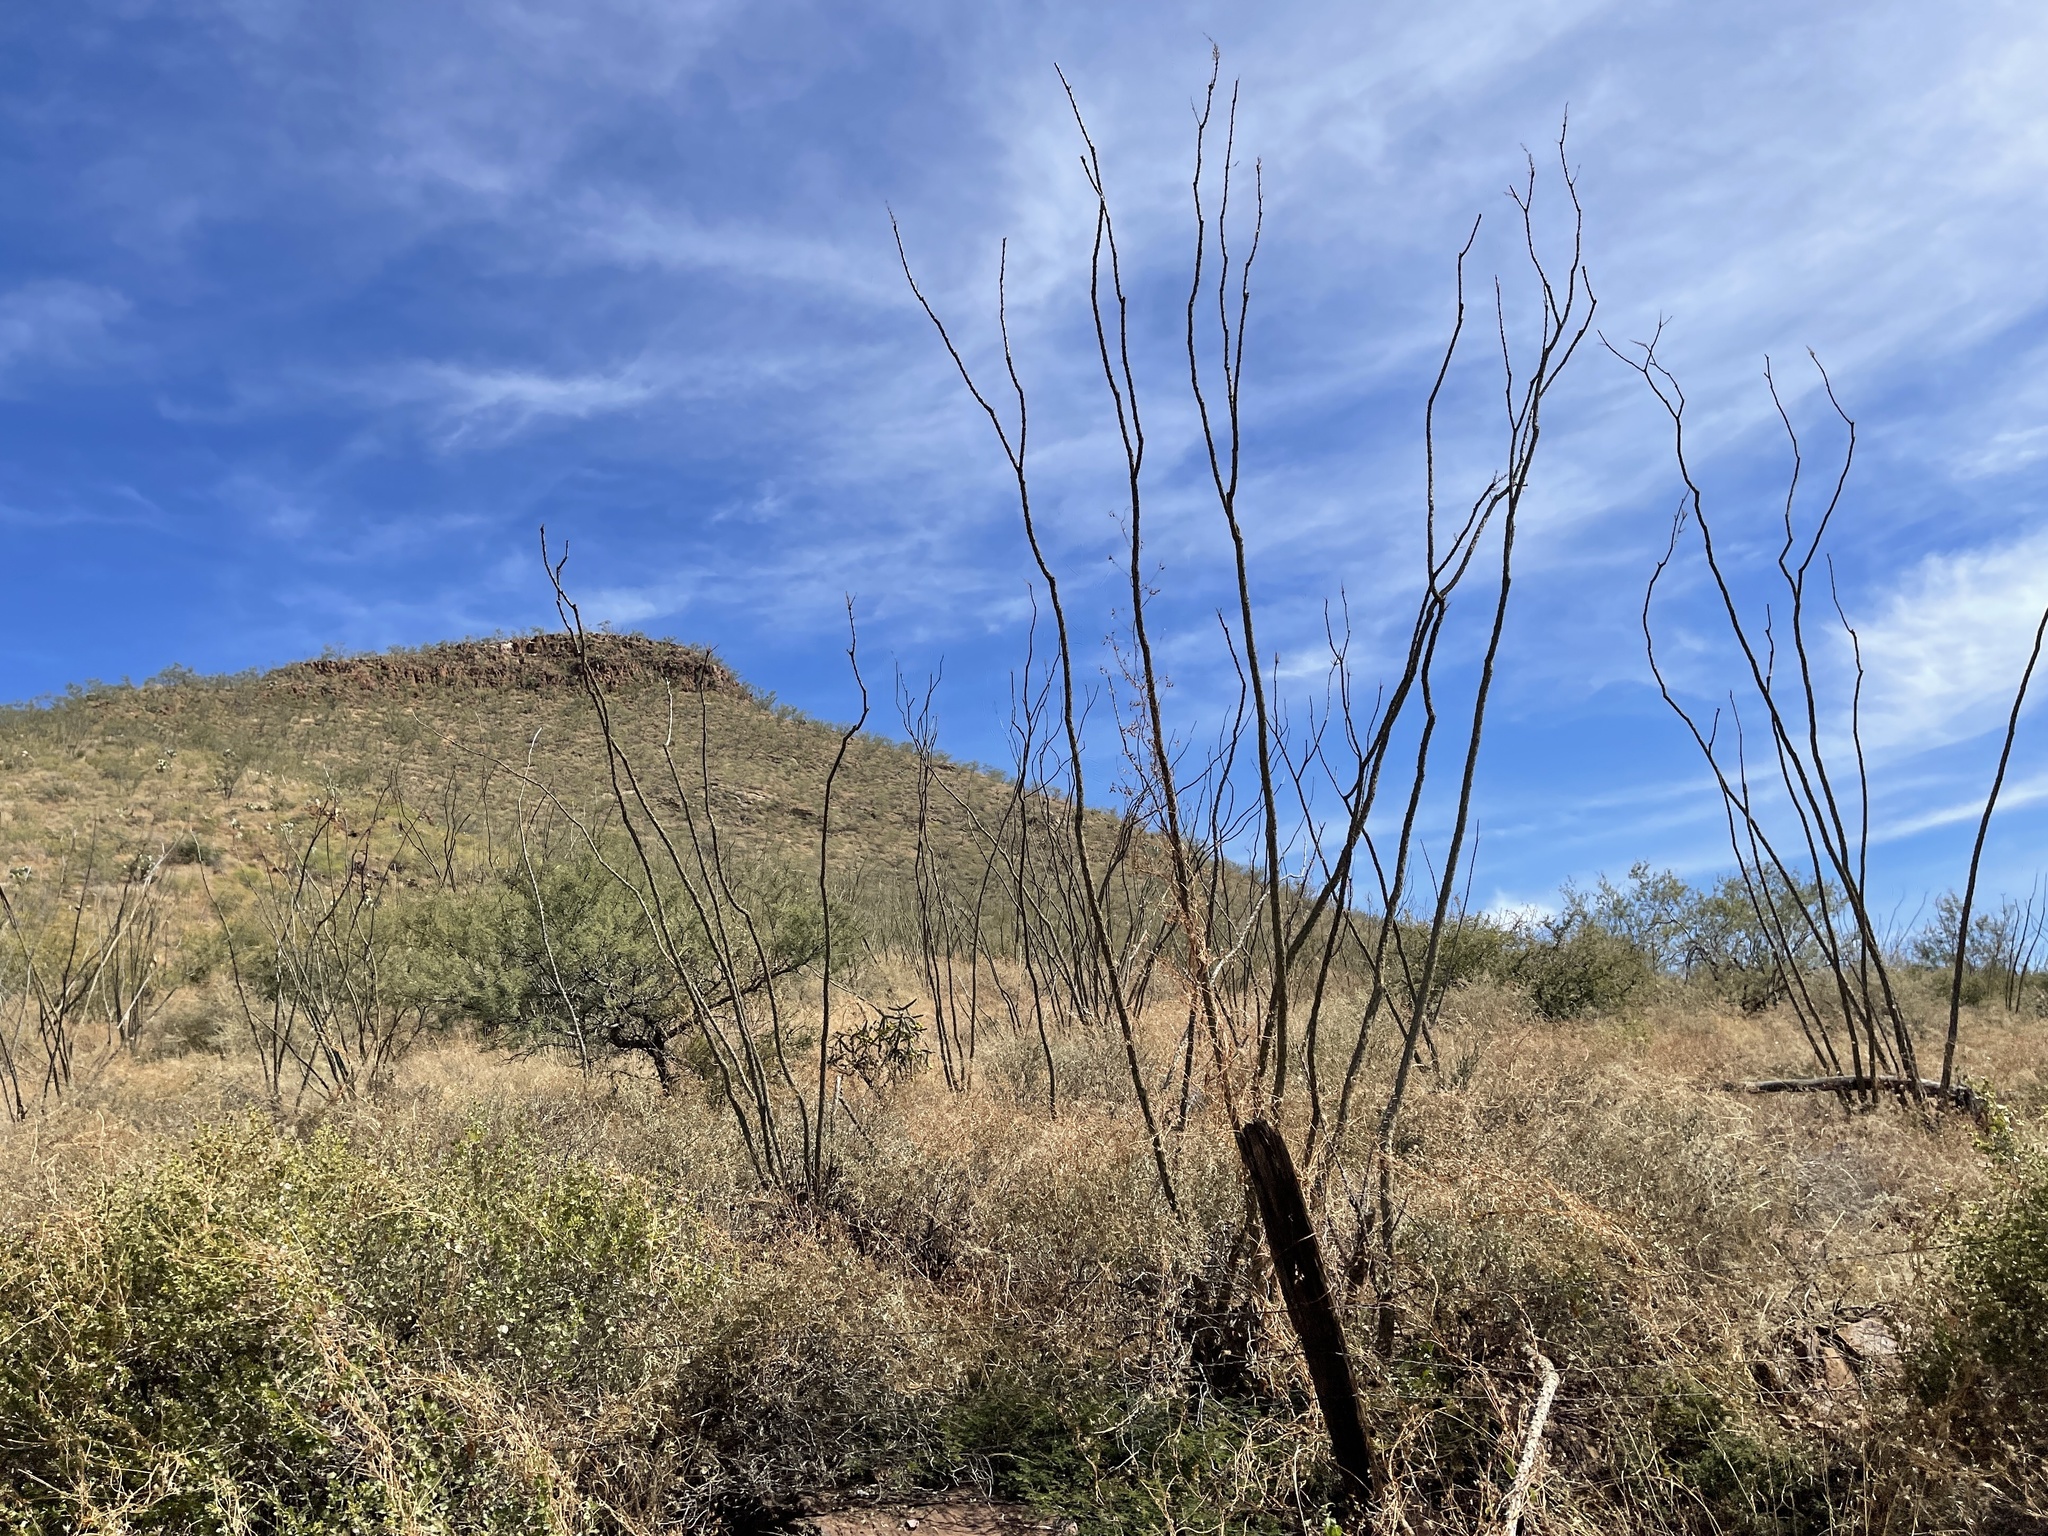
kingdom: Plantae
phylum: Tracheophyta
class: Magnoliopsida
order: Ericales
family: Fouquieriaceae
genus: Fouquieria
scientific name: Fouquieria splendens
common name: Vine-cactus
